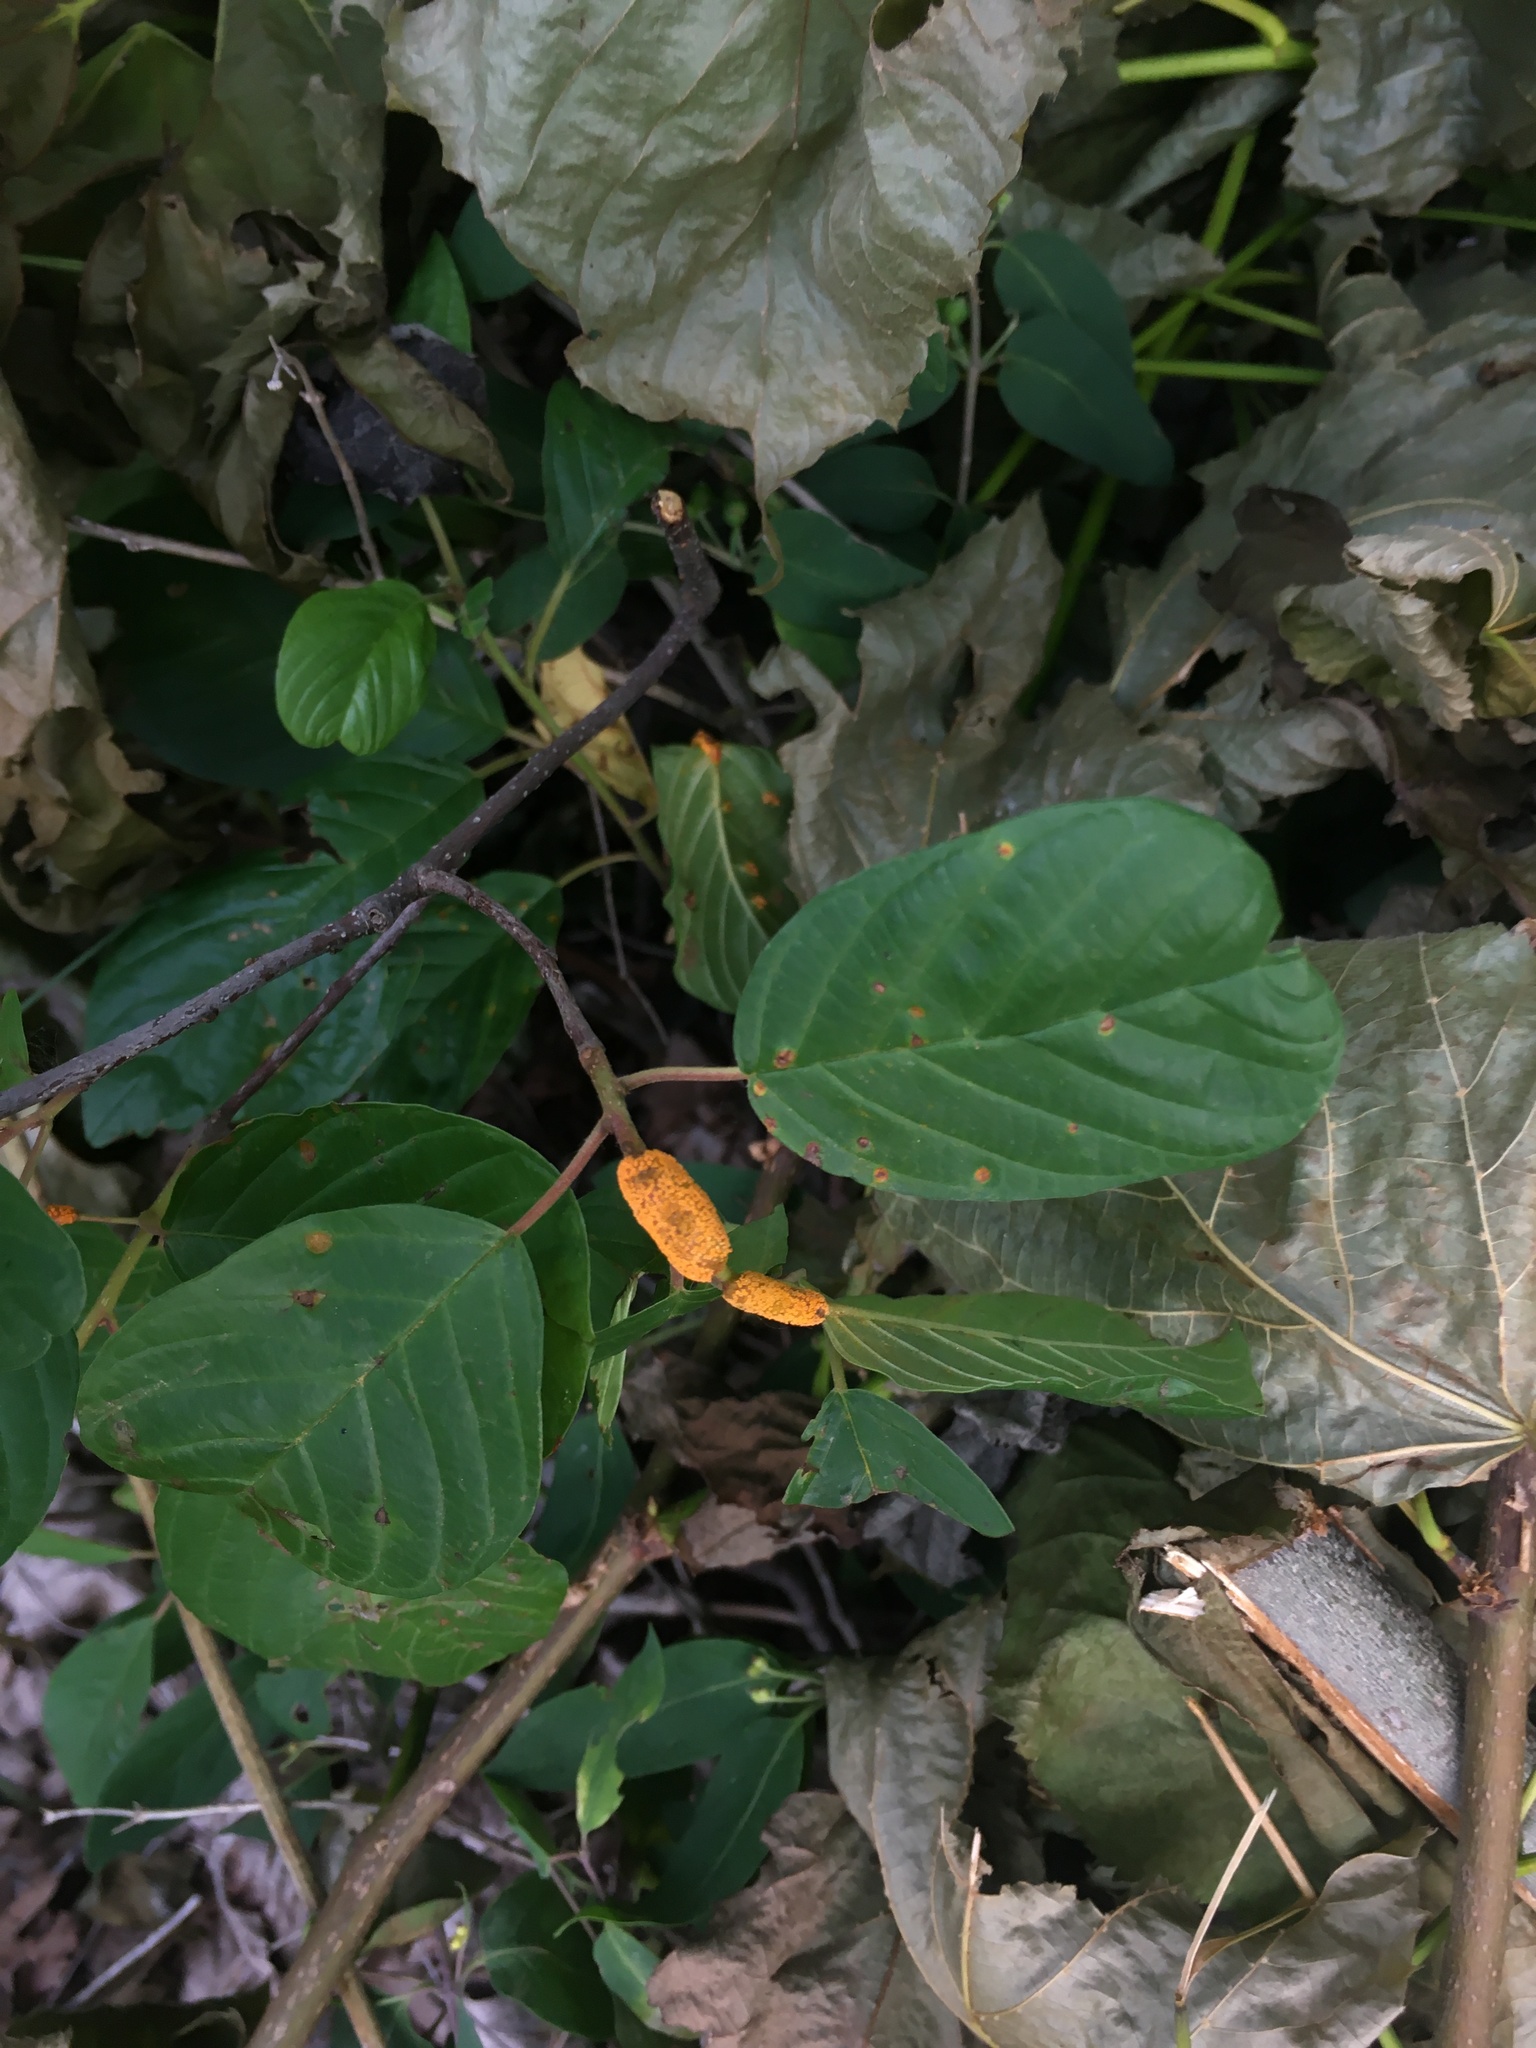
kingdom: Fungi
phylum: Basidiomycota
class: Pucciniomycetes
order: Pucciniales
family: Pucciniaceae
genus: Puccinia
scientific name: Puccinia coronata
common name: Crown rust
